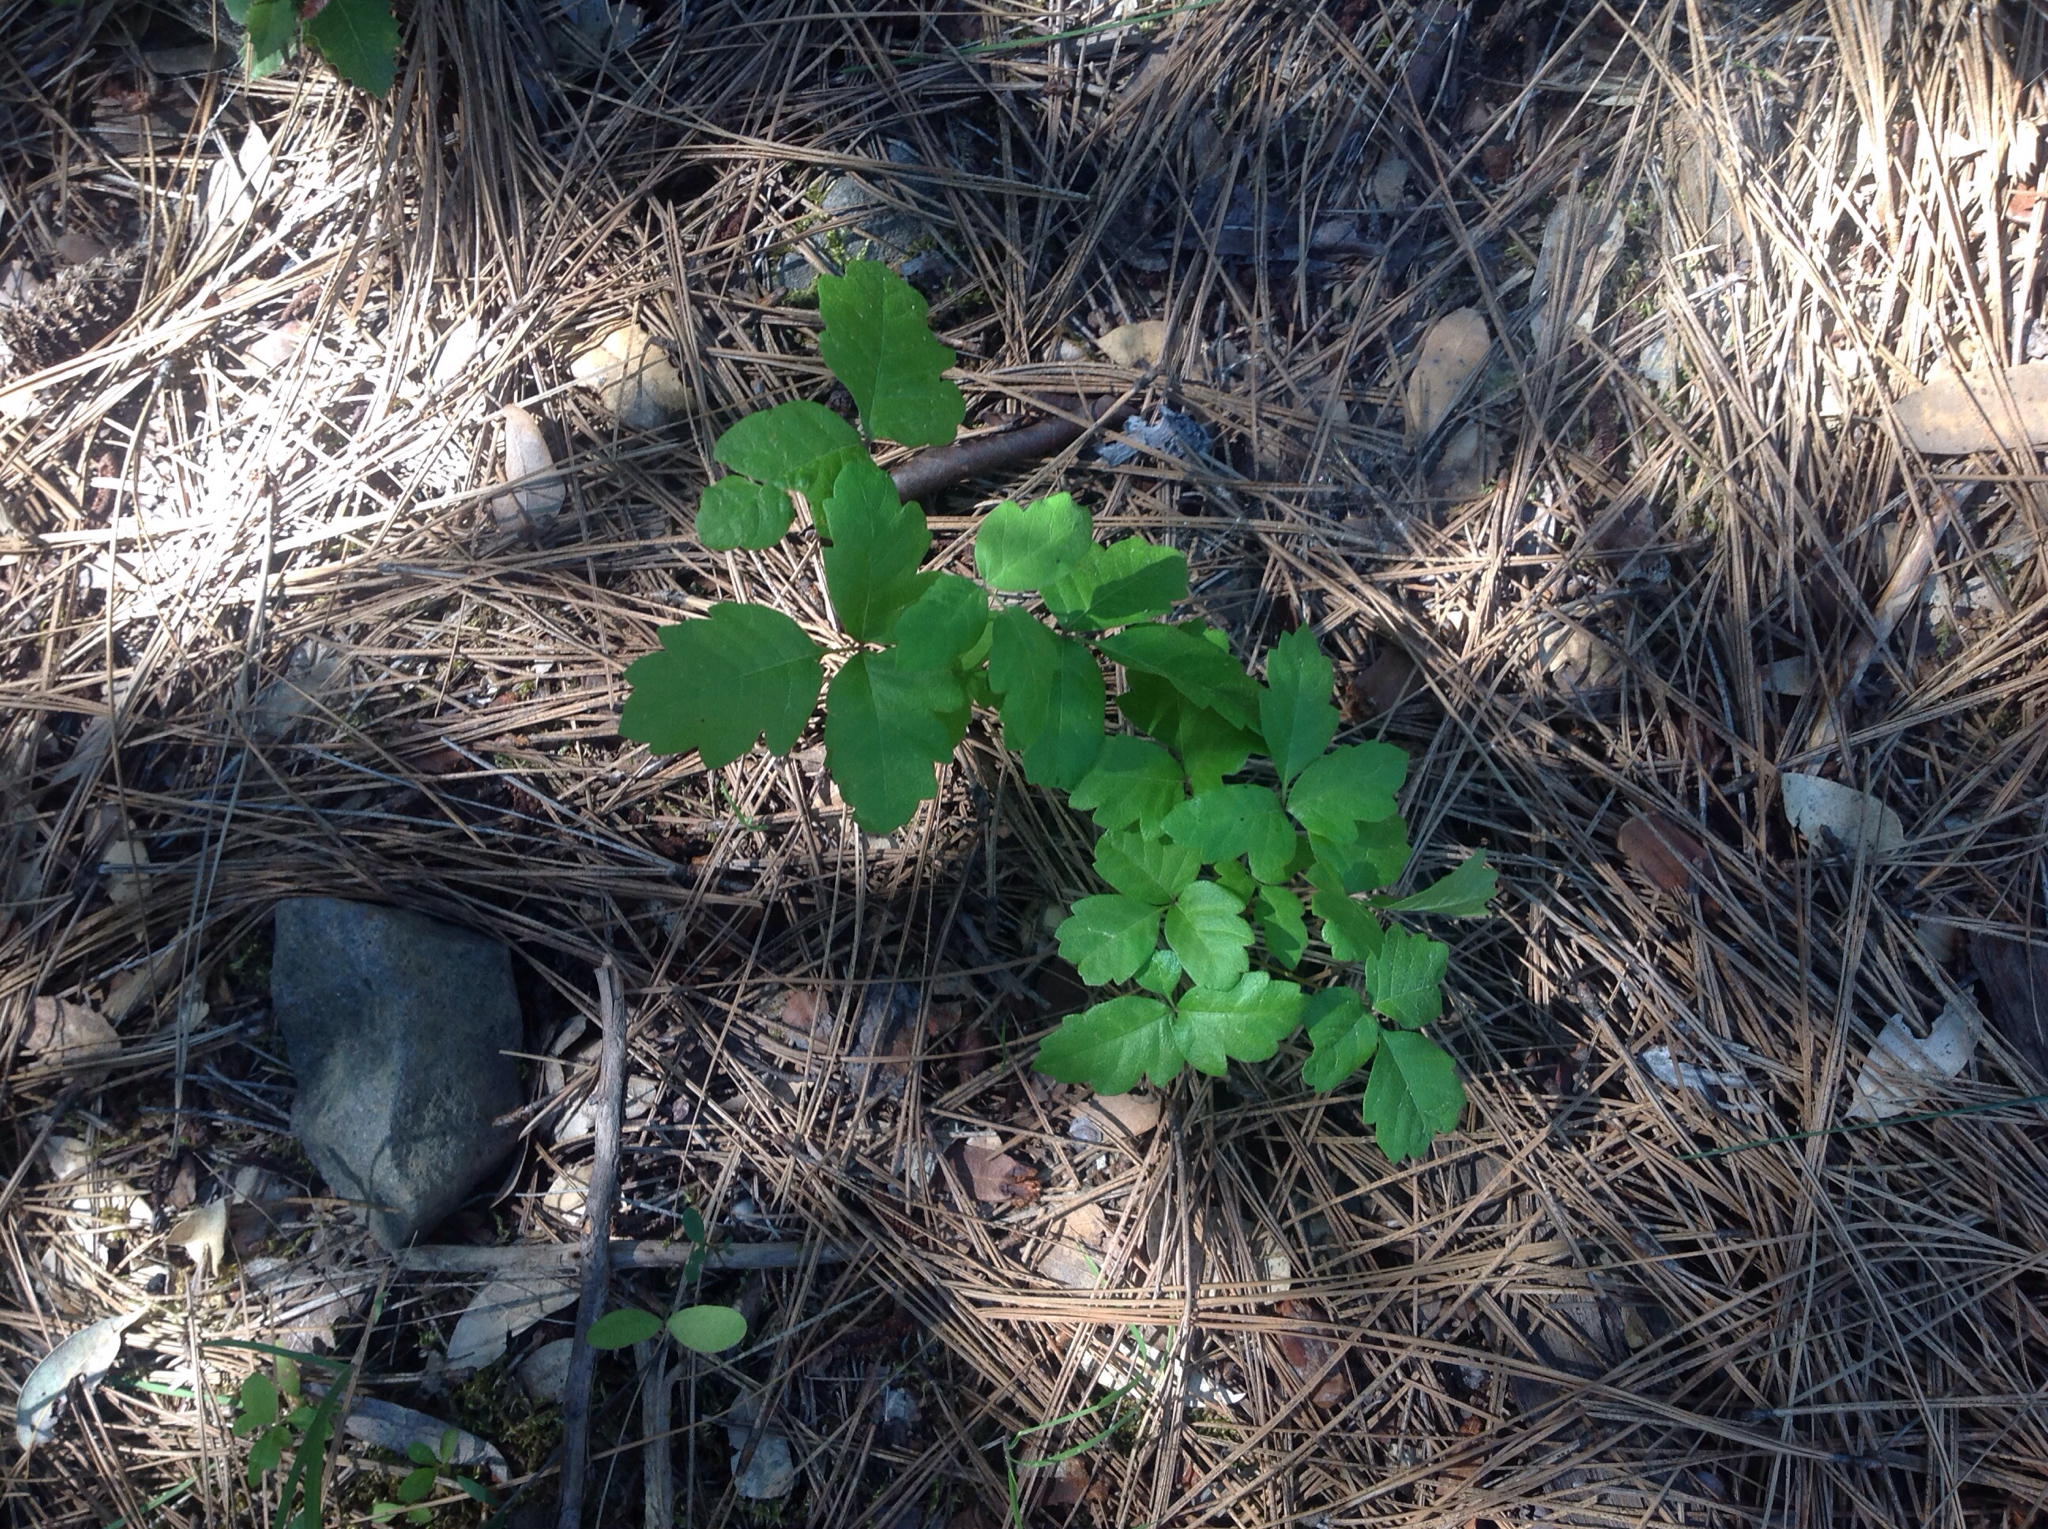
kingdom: Plantae
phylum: Tracheophyta
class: Magnoliopsida
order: Sapindales
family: Anacardiaceae
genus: Toxicodendron
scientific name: Toxicodendron diversilobum
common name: Pacific poison-oak
